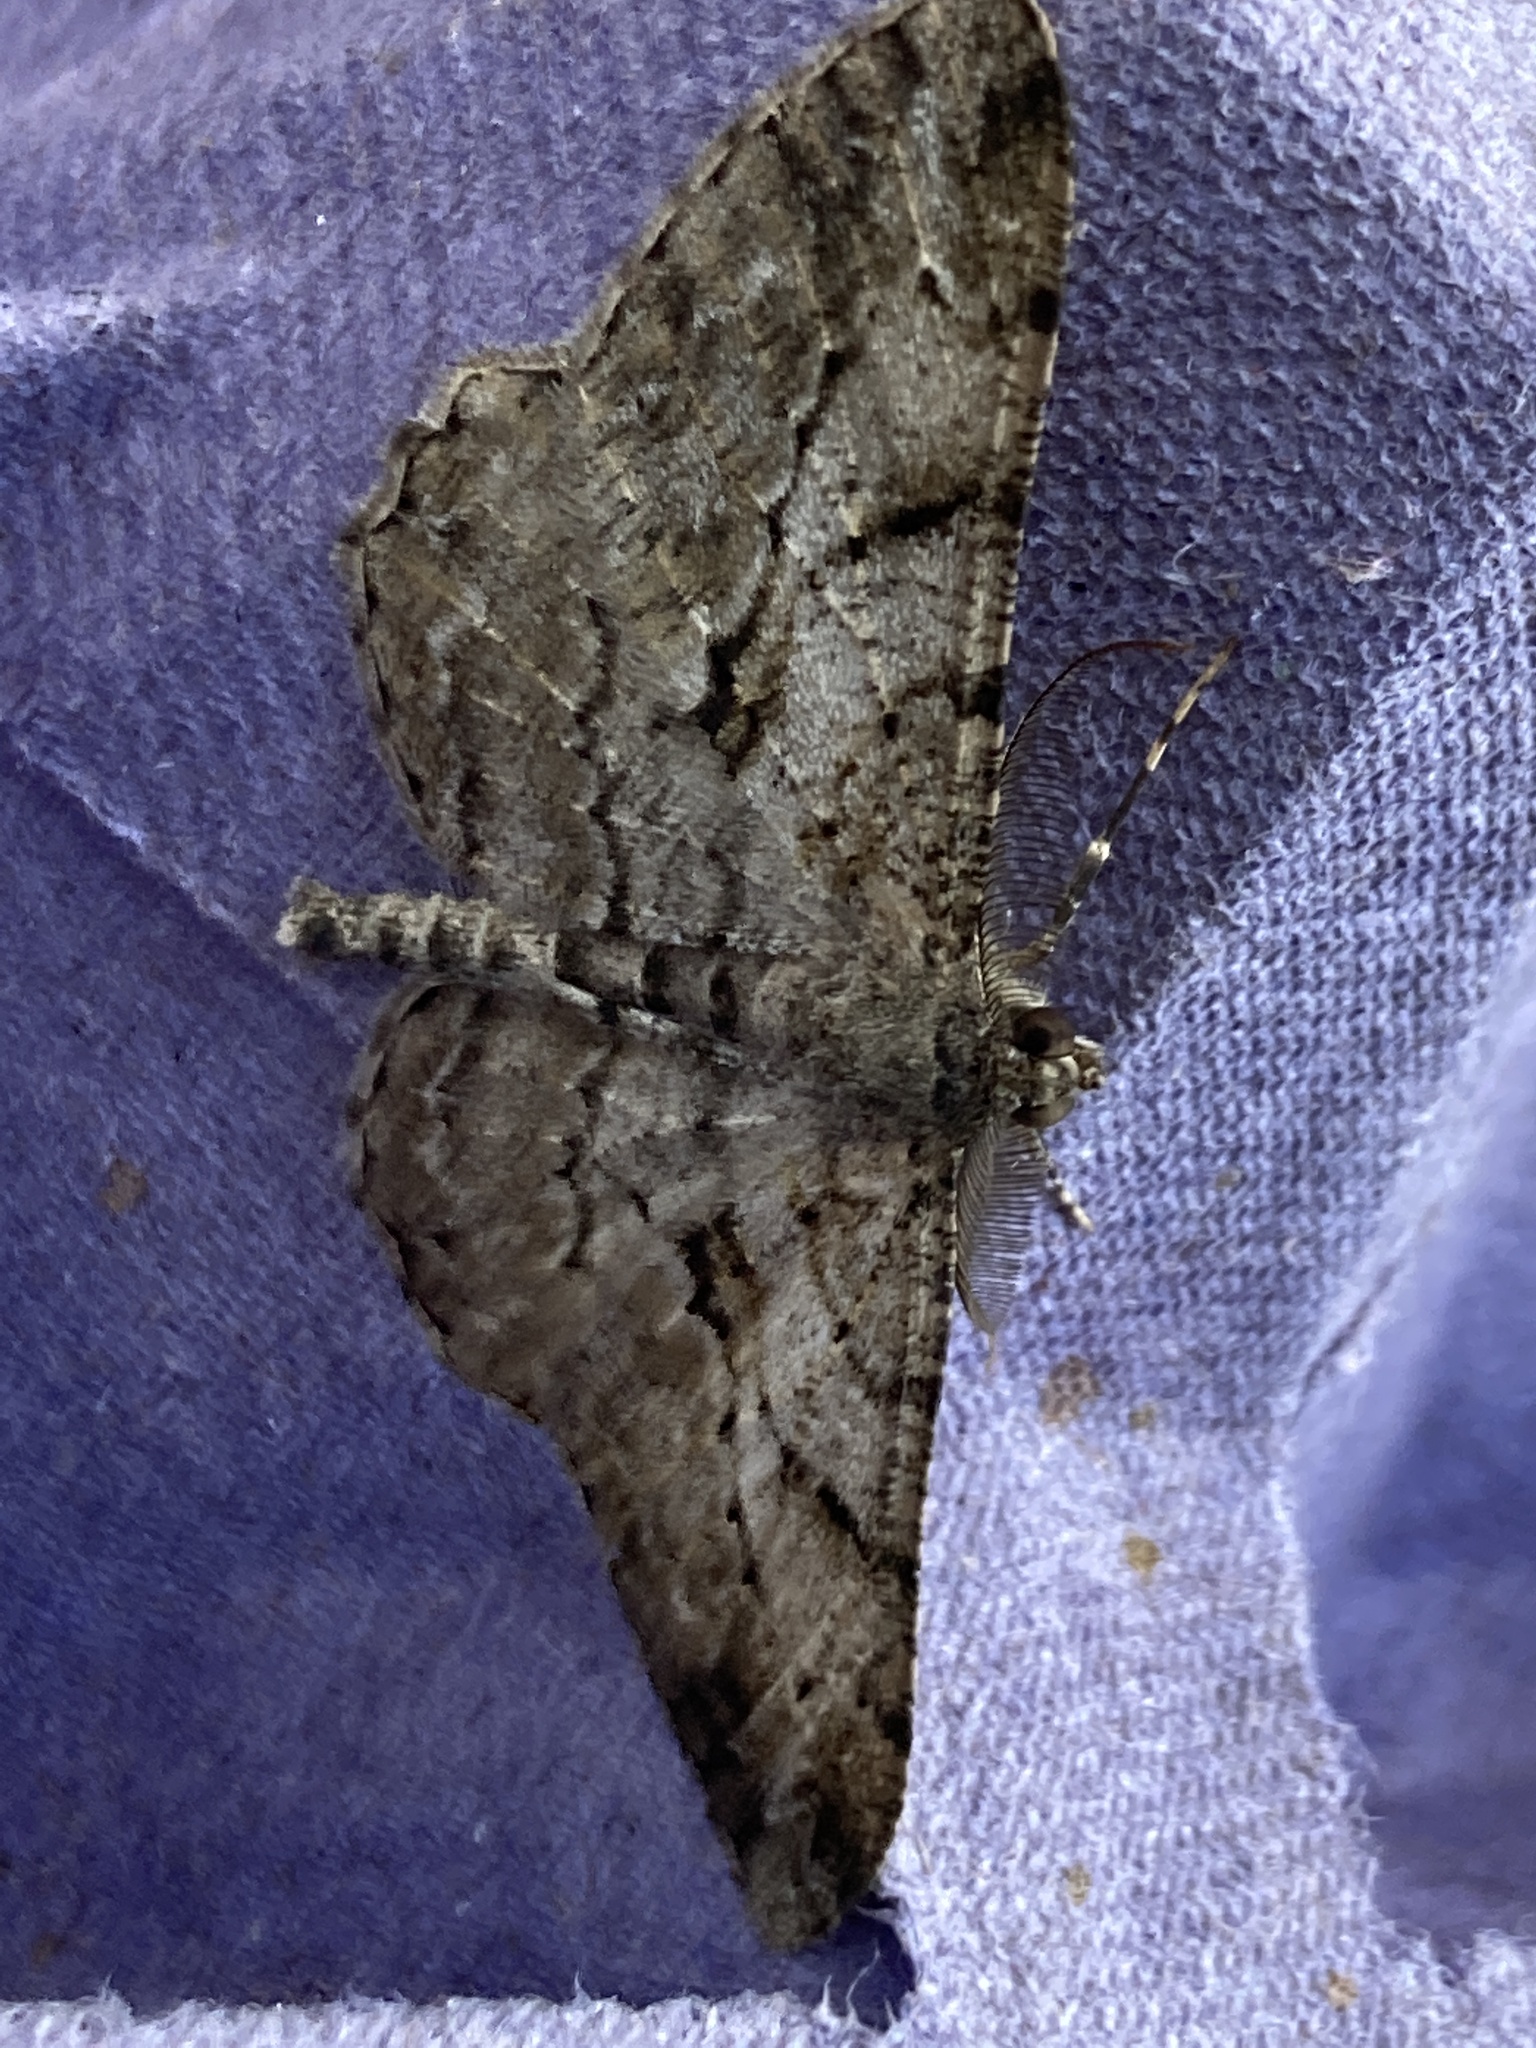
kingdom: Animalia
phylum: Arthropoda
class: Insecta
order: Lepidoptera
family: Geometridae
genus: Peribatodes
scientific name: Peribatodes rhomboidaria
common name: Willow beauty
